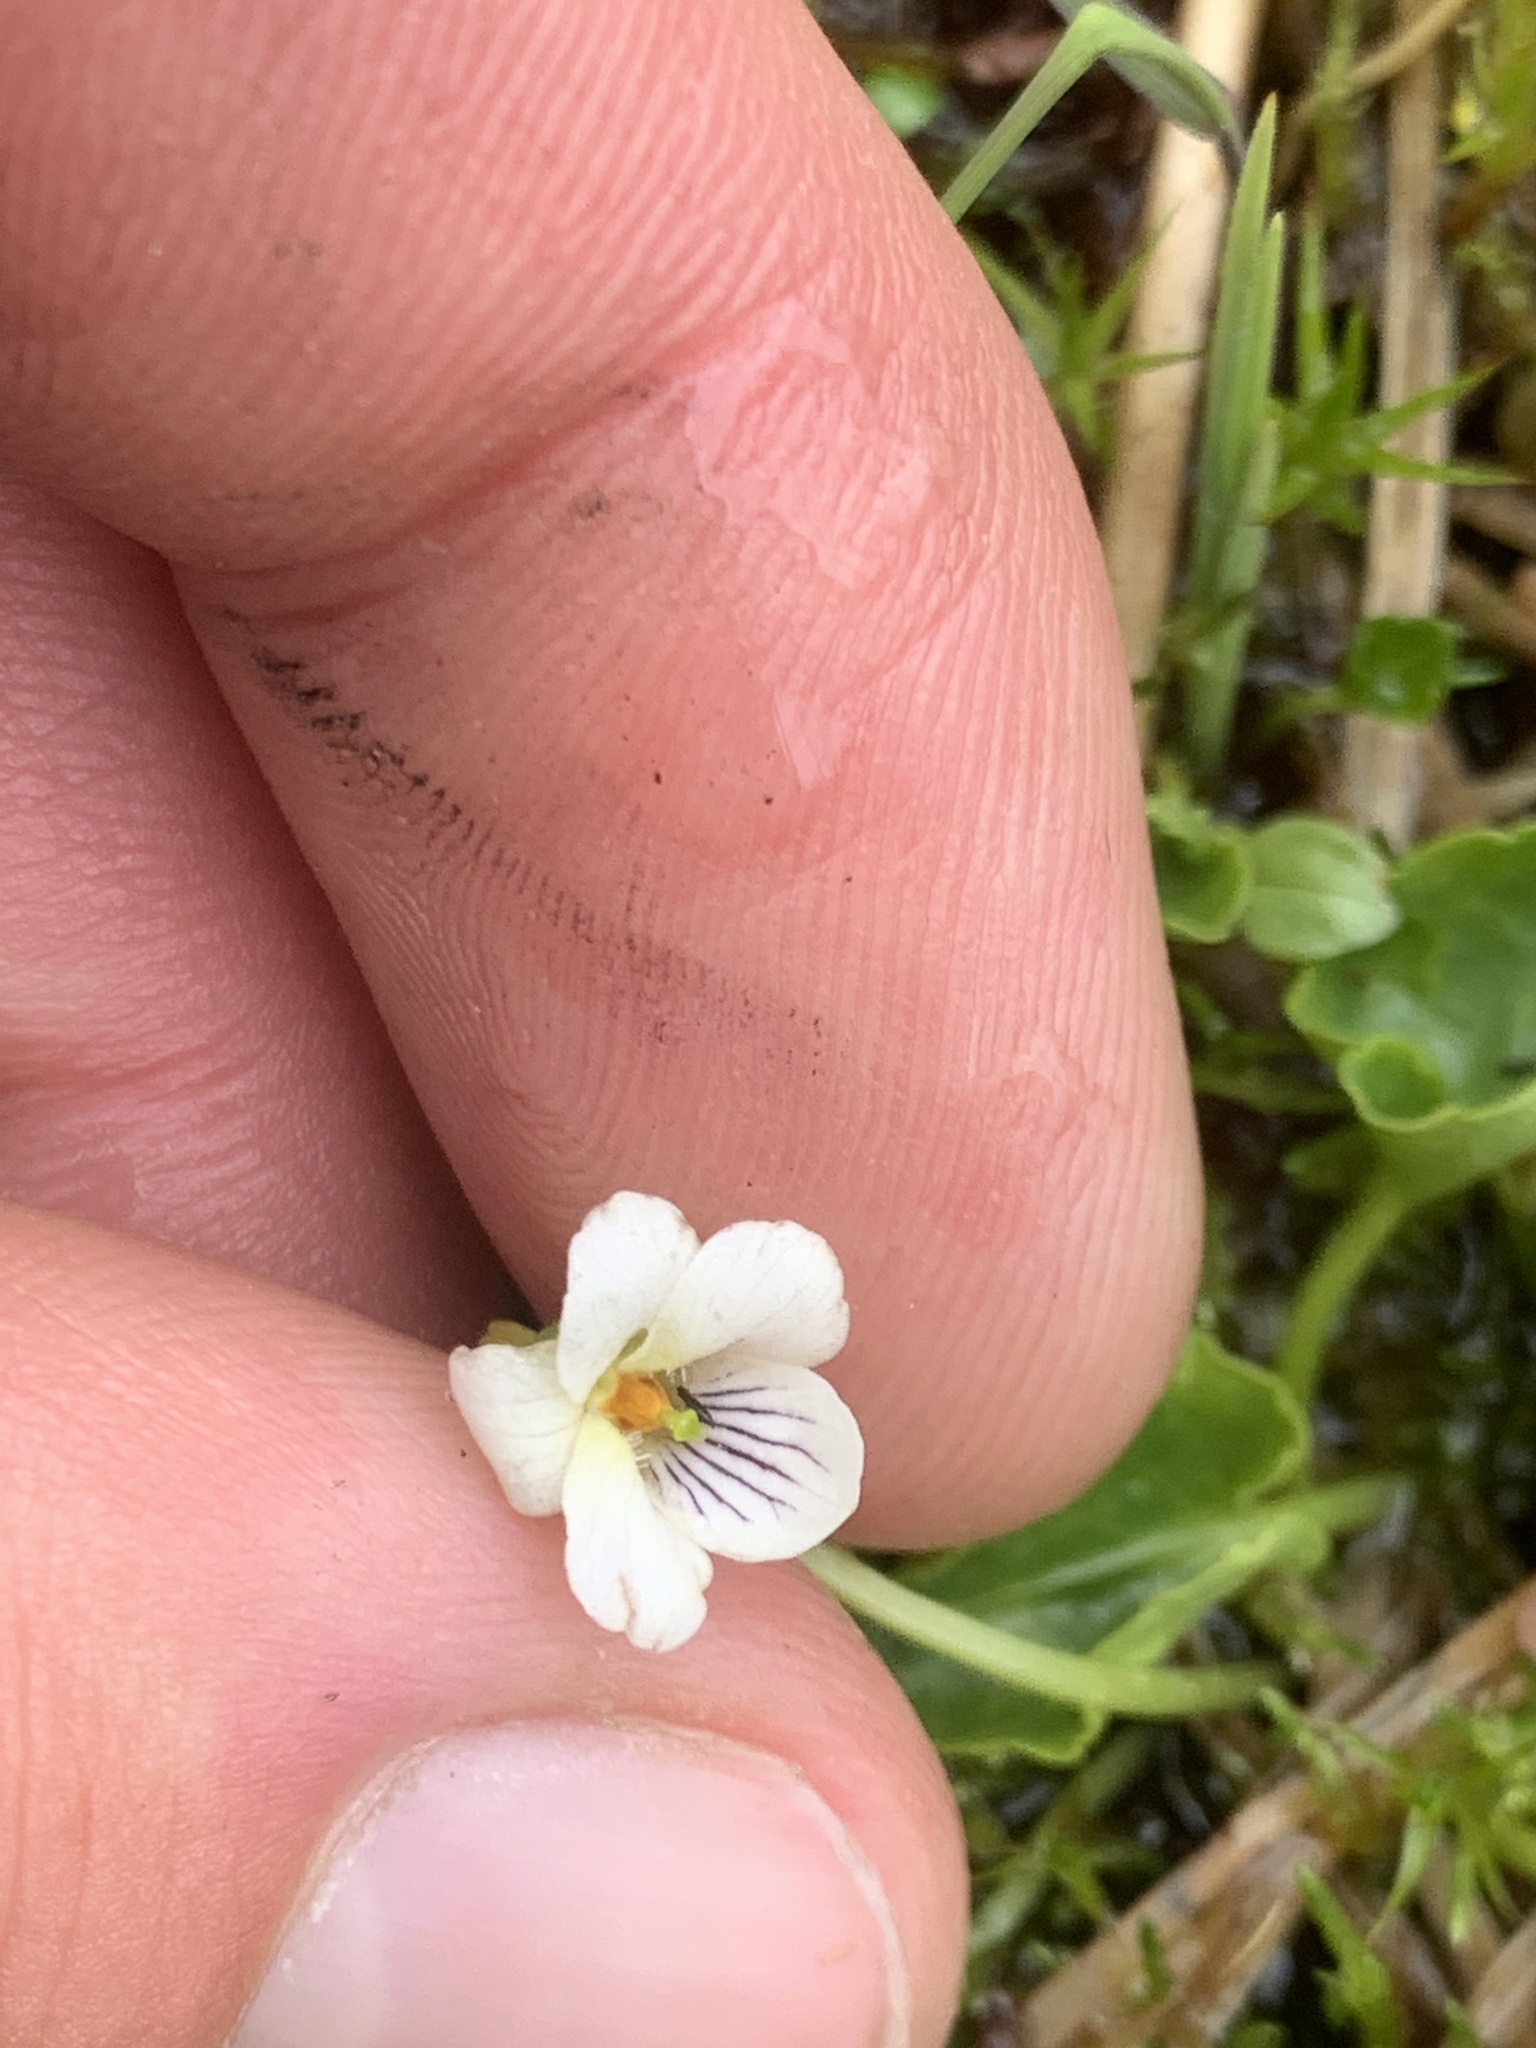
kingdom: Plantae
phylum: Tracheophyta
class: Magnoliopsida
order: Malpighiales
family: Violaceae
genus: Viola
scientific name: Viola minuscula
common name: Northern white violet
